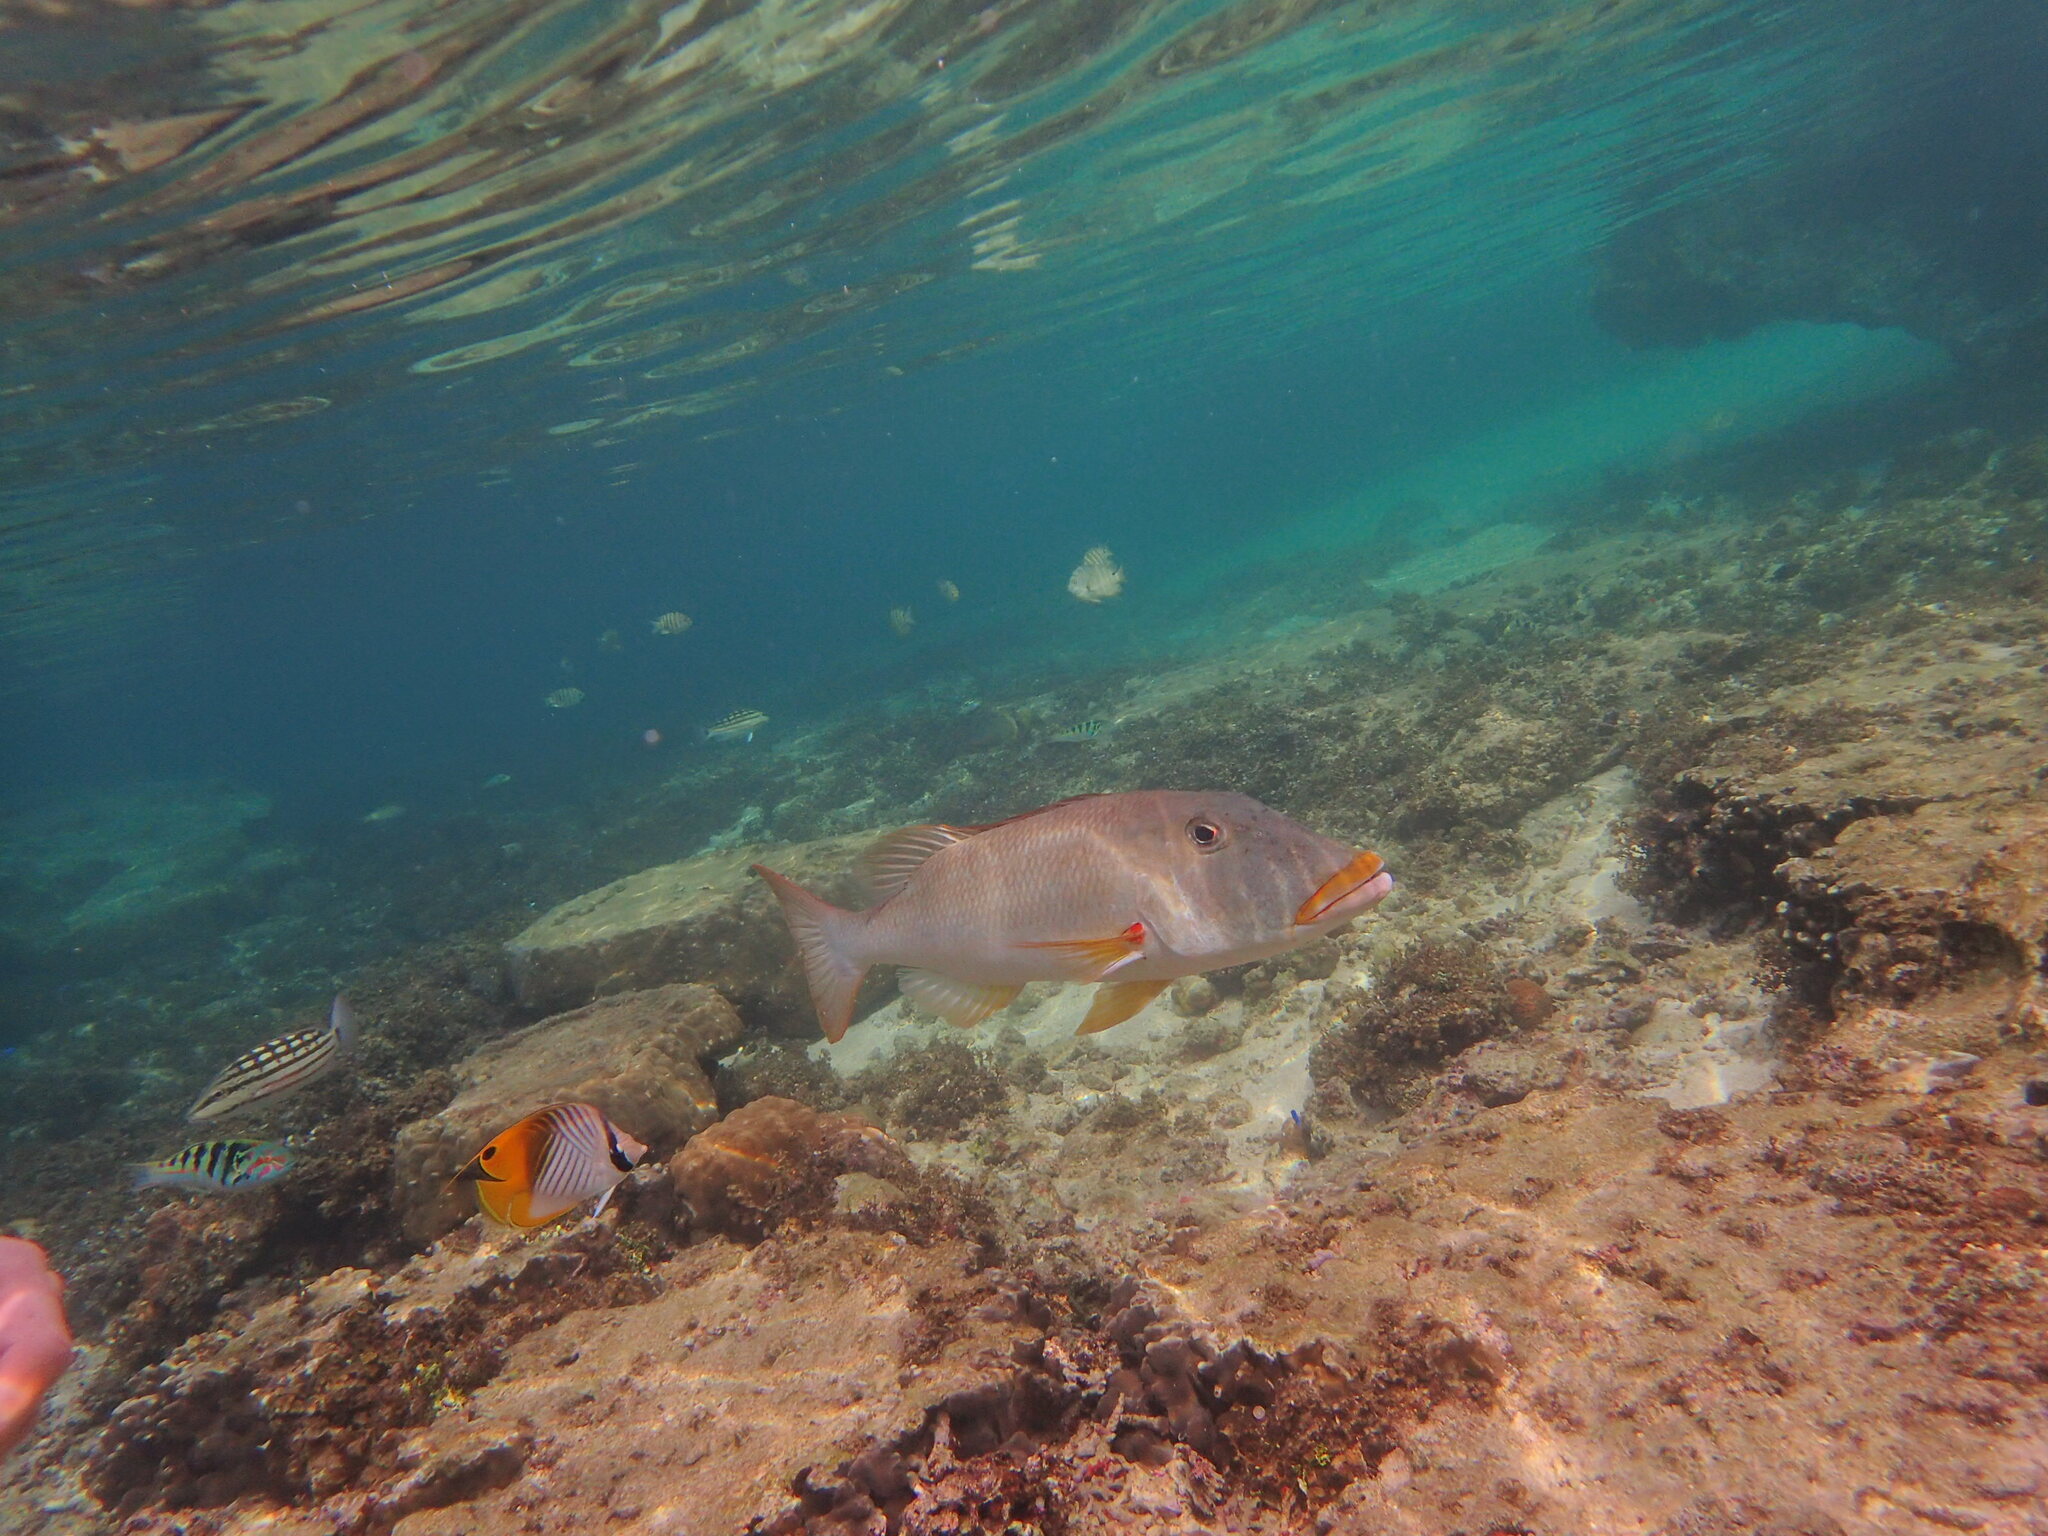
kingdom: Animalia
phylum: Chordata
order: Perciformes
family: Lethrinidae
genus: Lethrinus
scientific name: Lethrinus xanthochilus
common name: Yellowlip emperor
